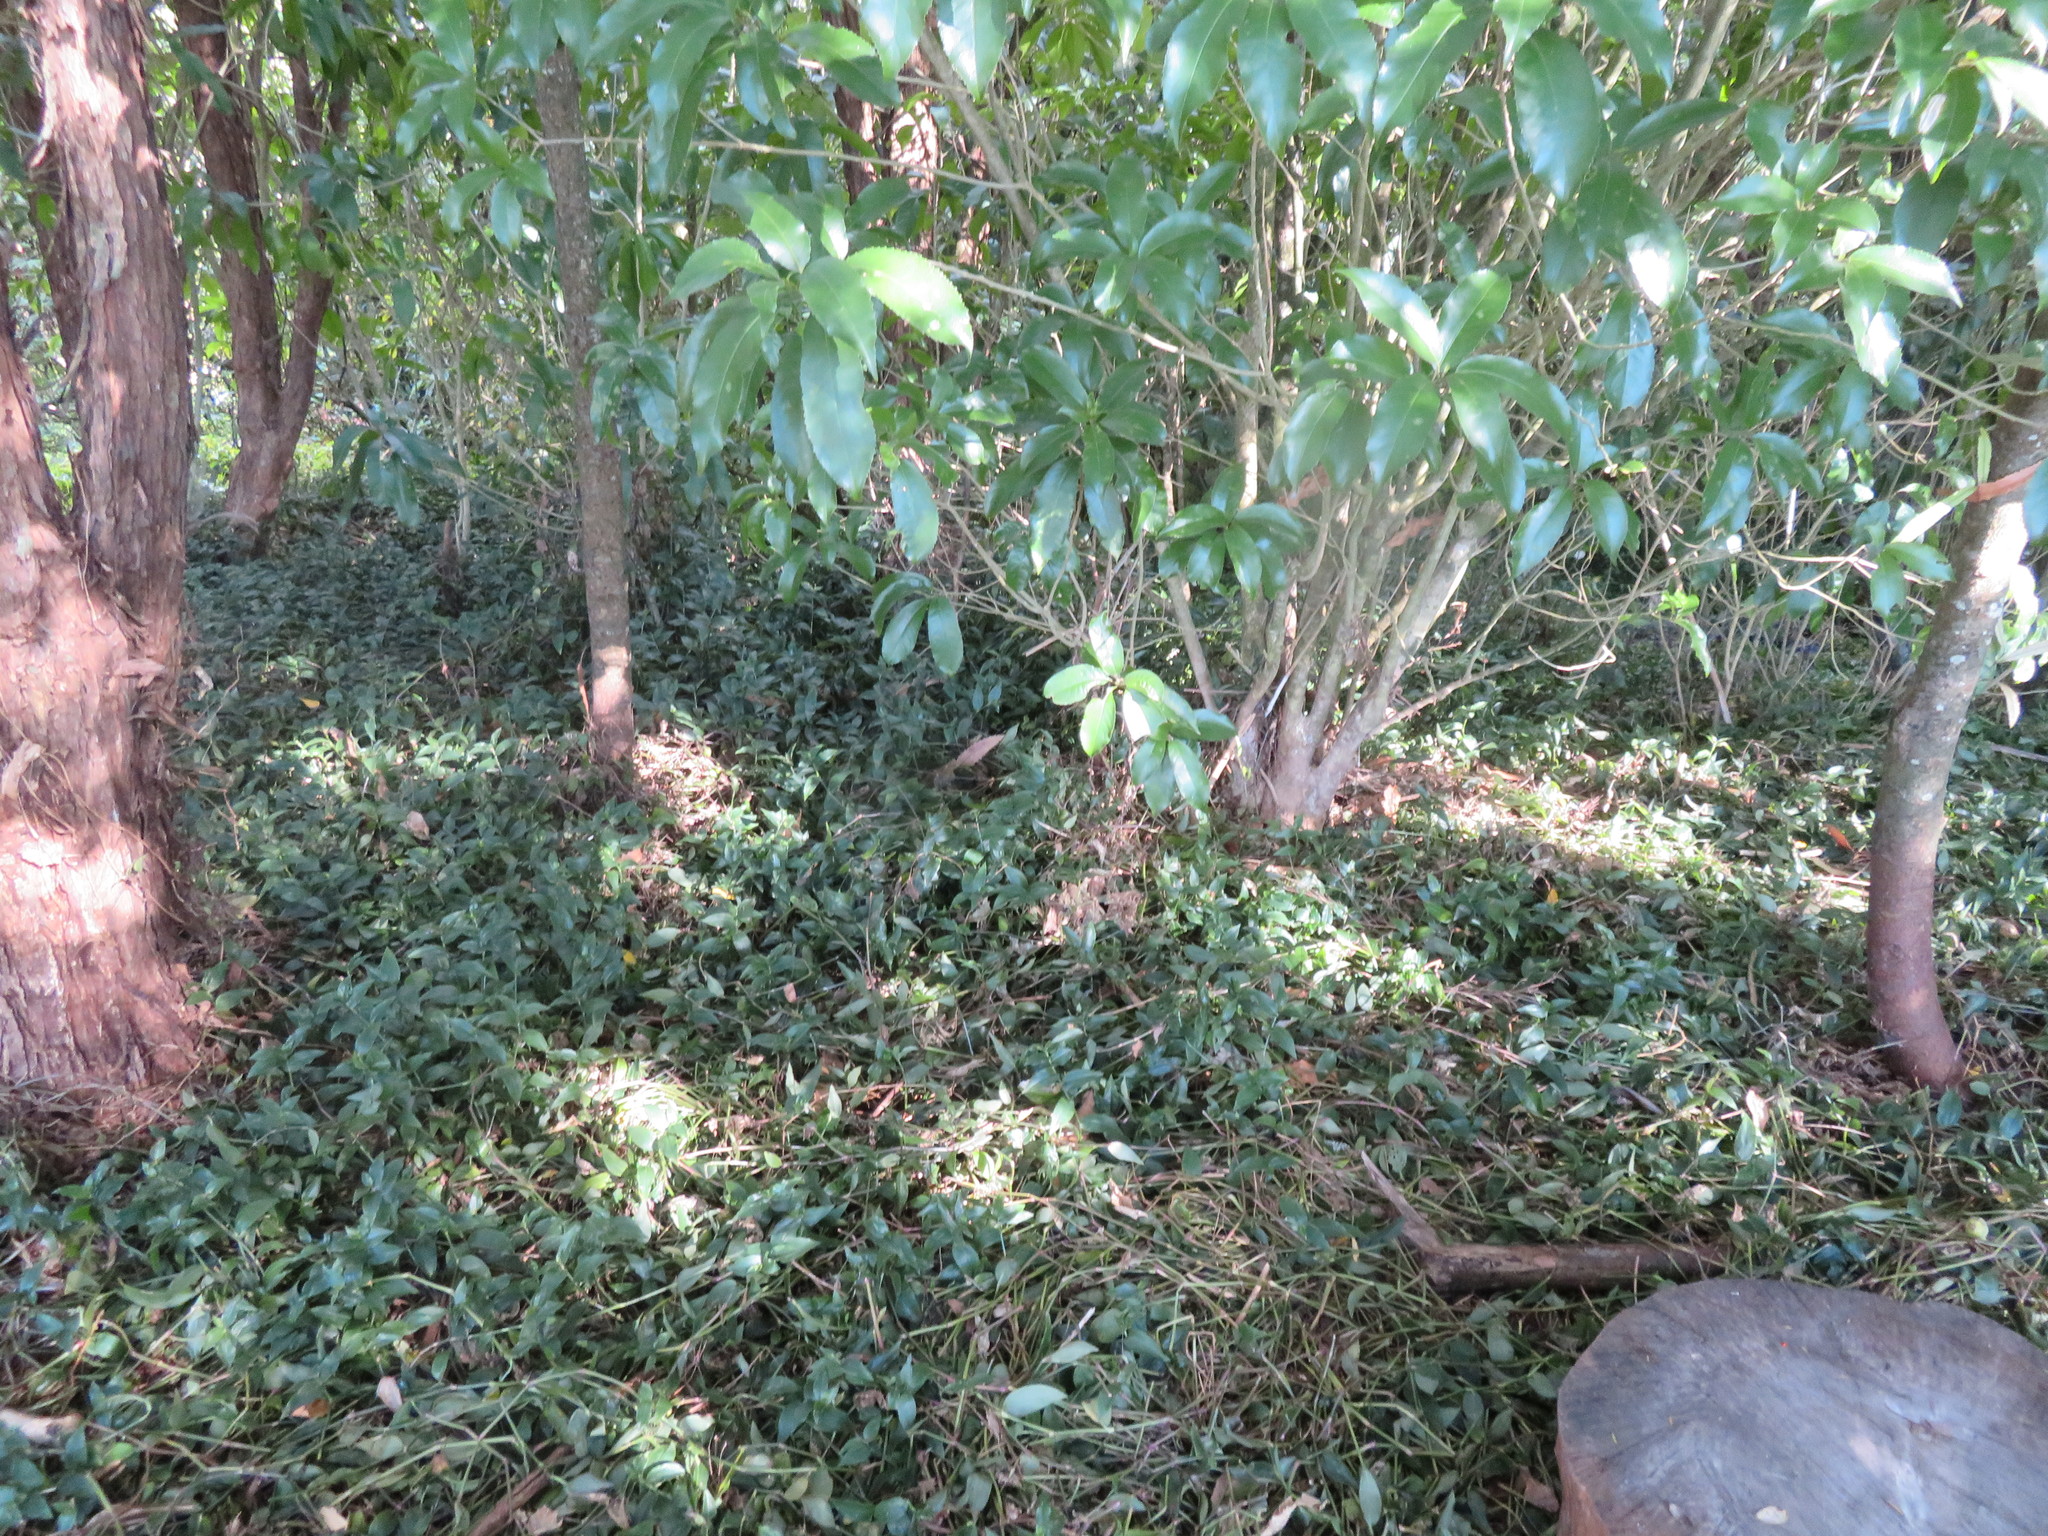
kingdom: Plantae
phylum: Tracheophyta
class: Magnoliopsida
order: Malpighiales
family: Violaceae
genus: Melicytus
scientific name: Melicytus ramiflorus
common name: Mahoe
